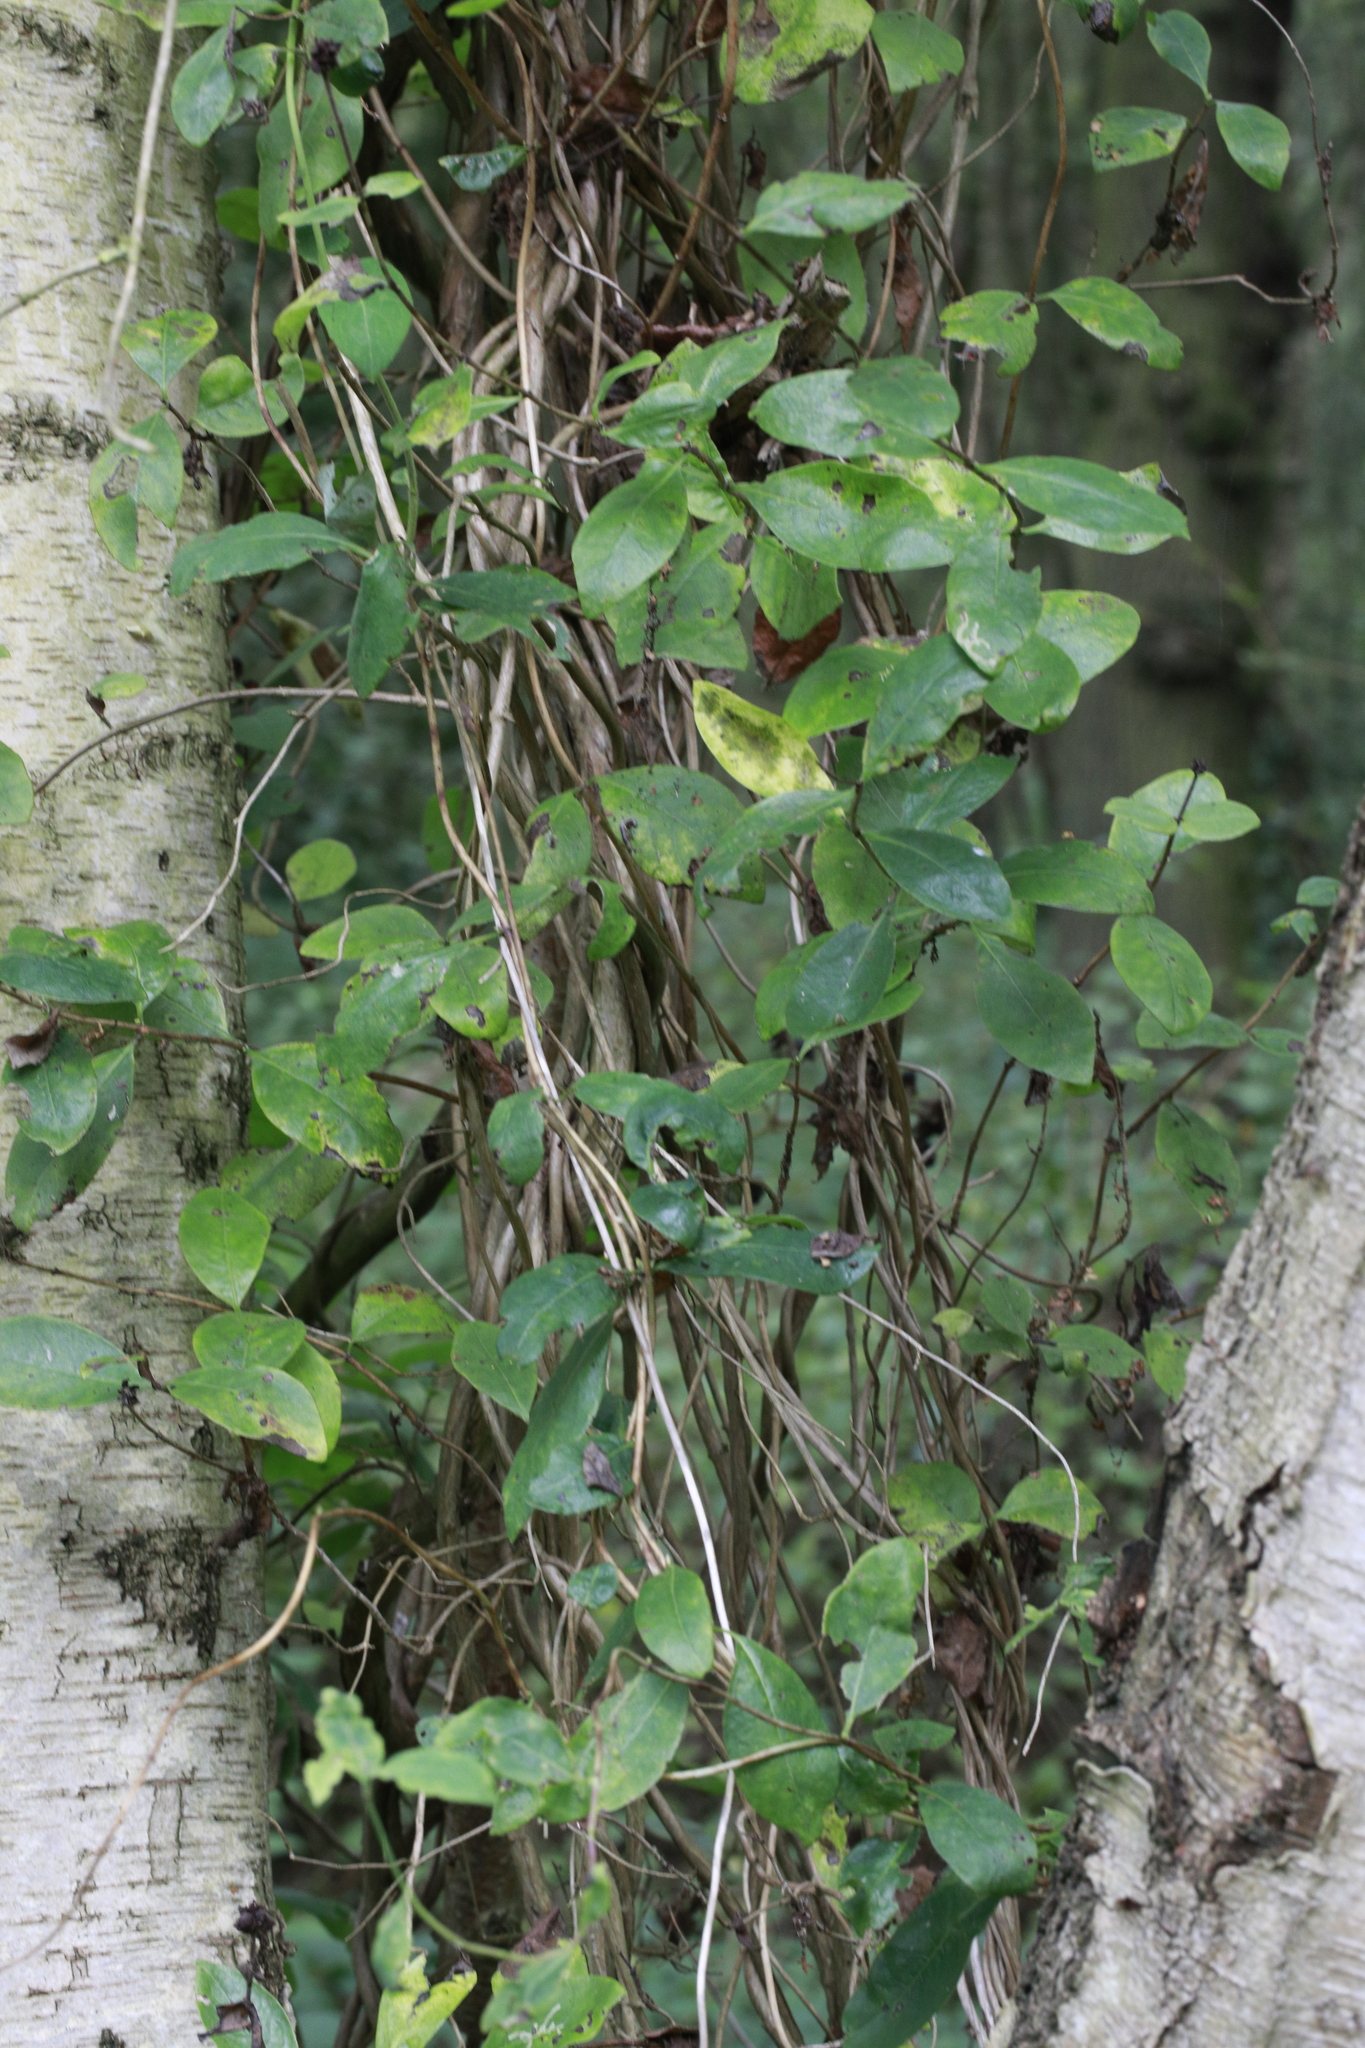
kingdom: Plantae
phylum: Tracheophyta
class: Magnoliopsida
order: Dipsacales
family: Caprifoliaceae
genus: Lonicera
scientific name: Lonicera periclymenum
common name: European honeysuckle
